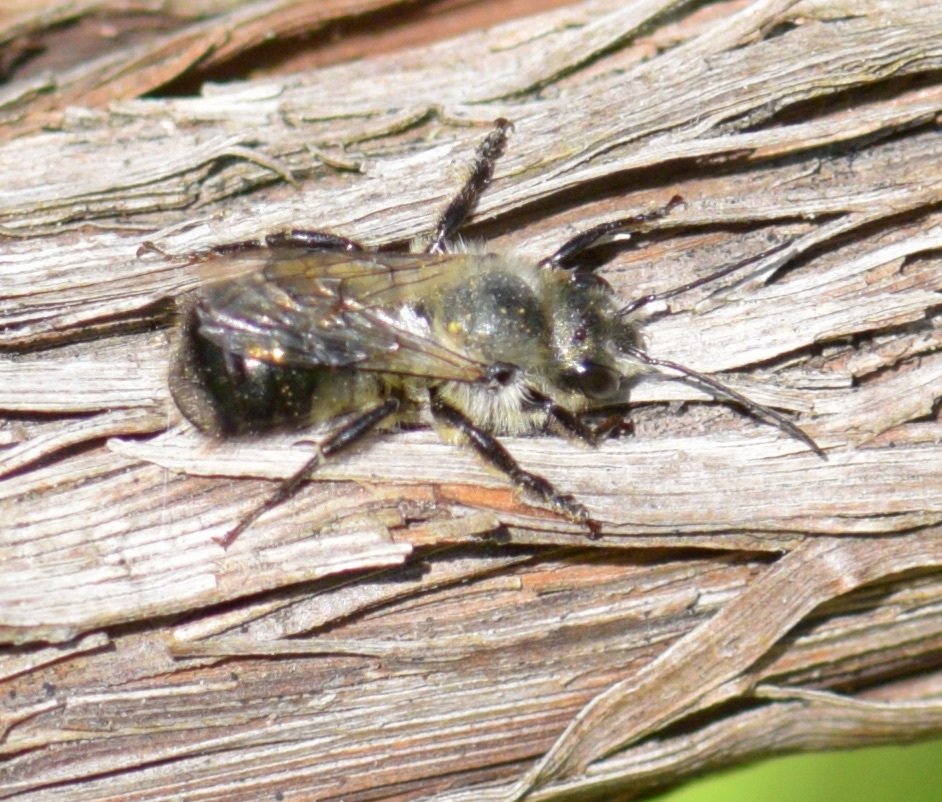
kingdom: Animalia
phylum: Arthropoda
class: Insecta
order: Hymenoptera
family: Megachilidae
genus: Osmia
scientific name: Osmia bucephala
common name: Bufflehead mason bee
